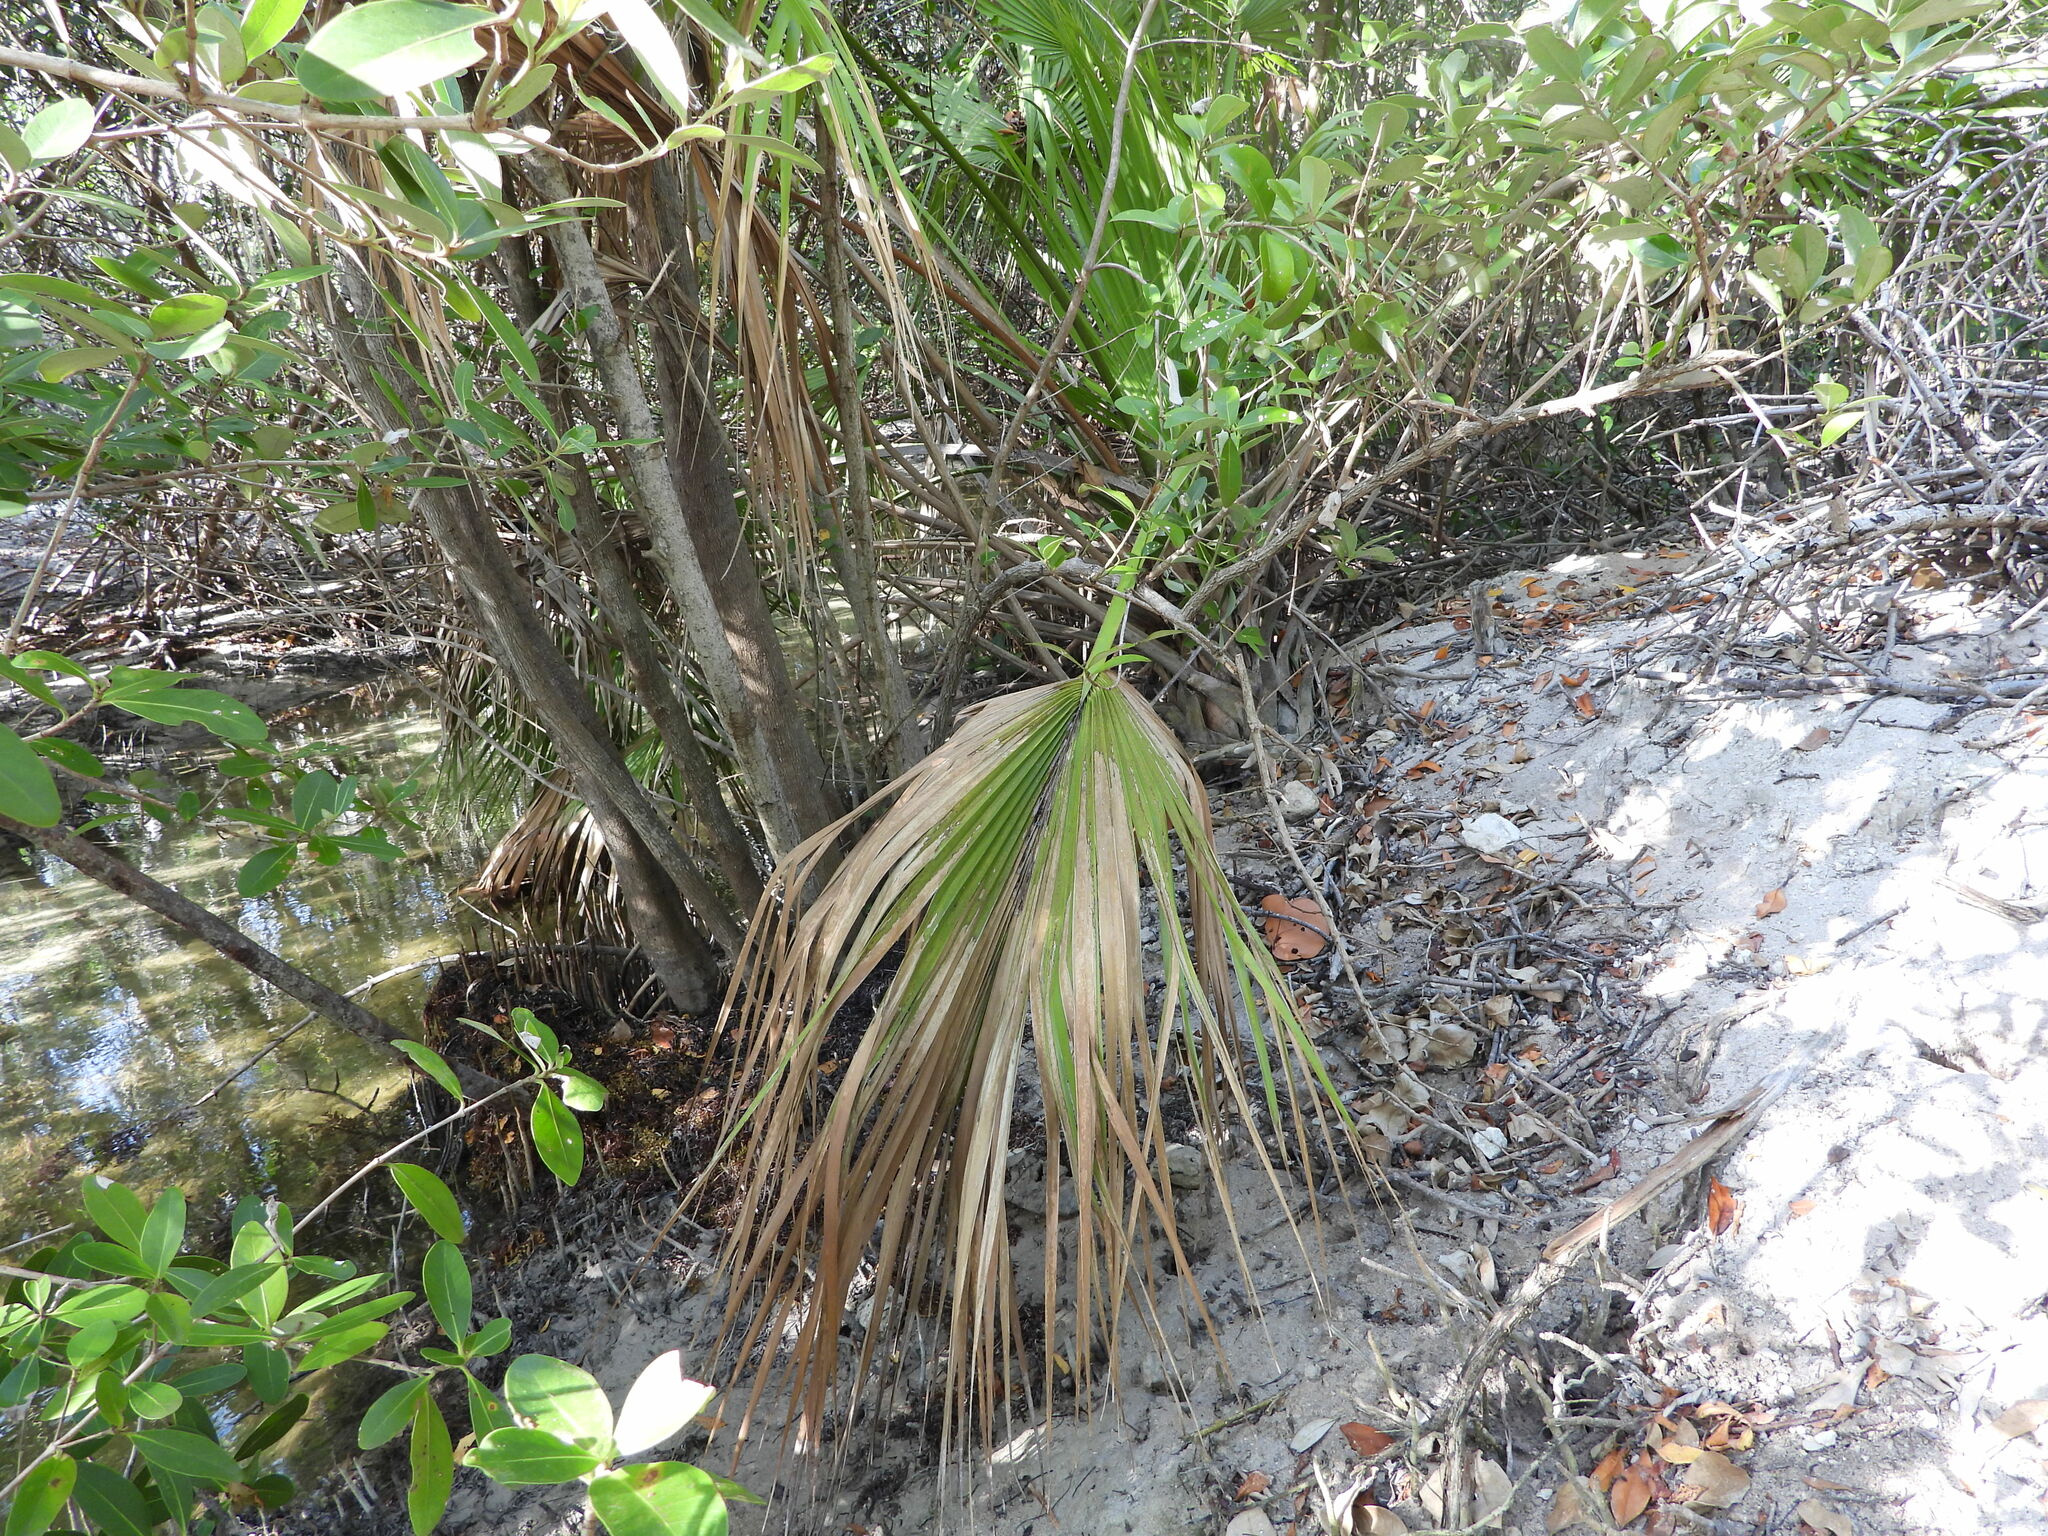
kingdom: Plantae
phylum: Tracheophyta
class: Liliopsida
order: Arecales
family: Arecaceae
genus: Sabal
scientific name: Sabal palmetto
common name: Blue palmetto
